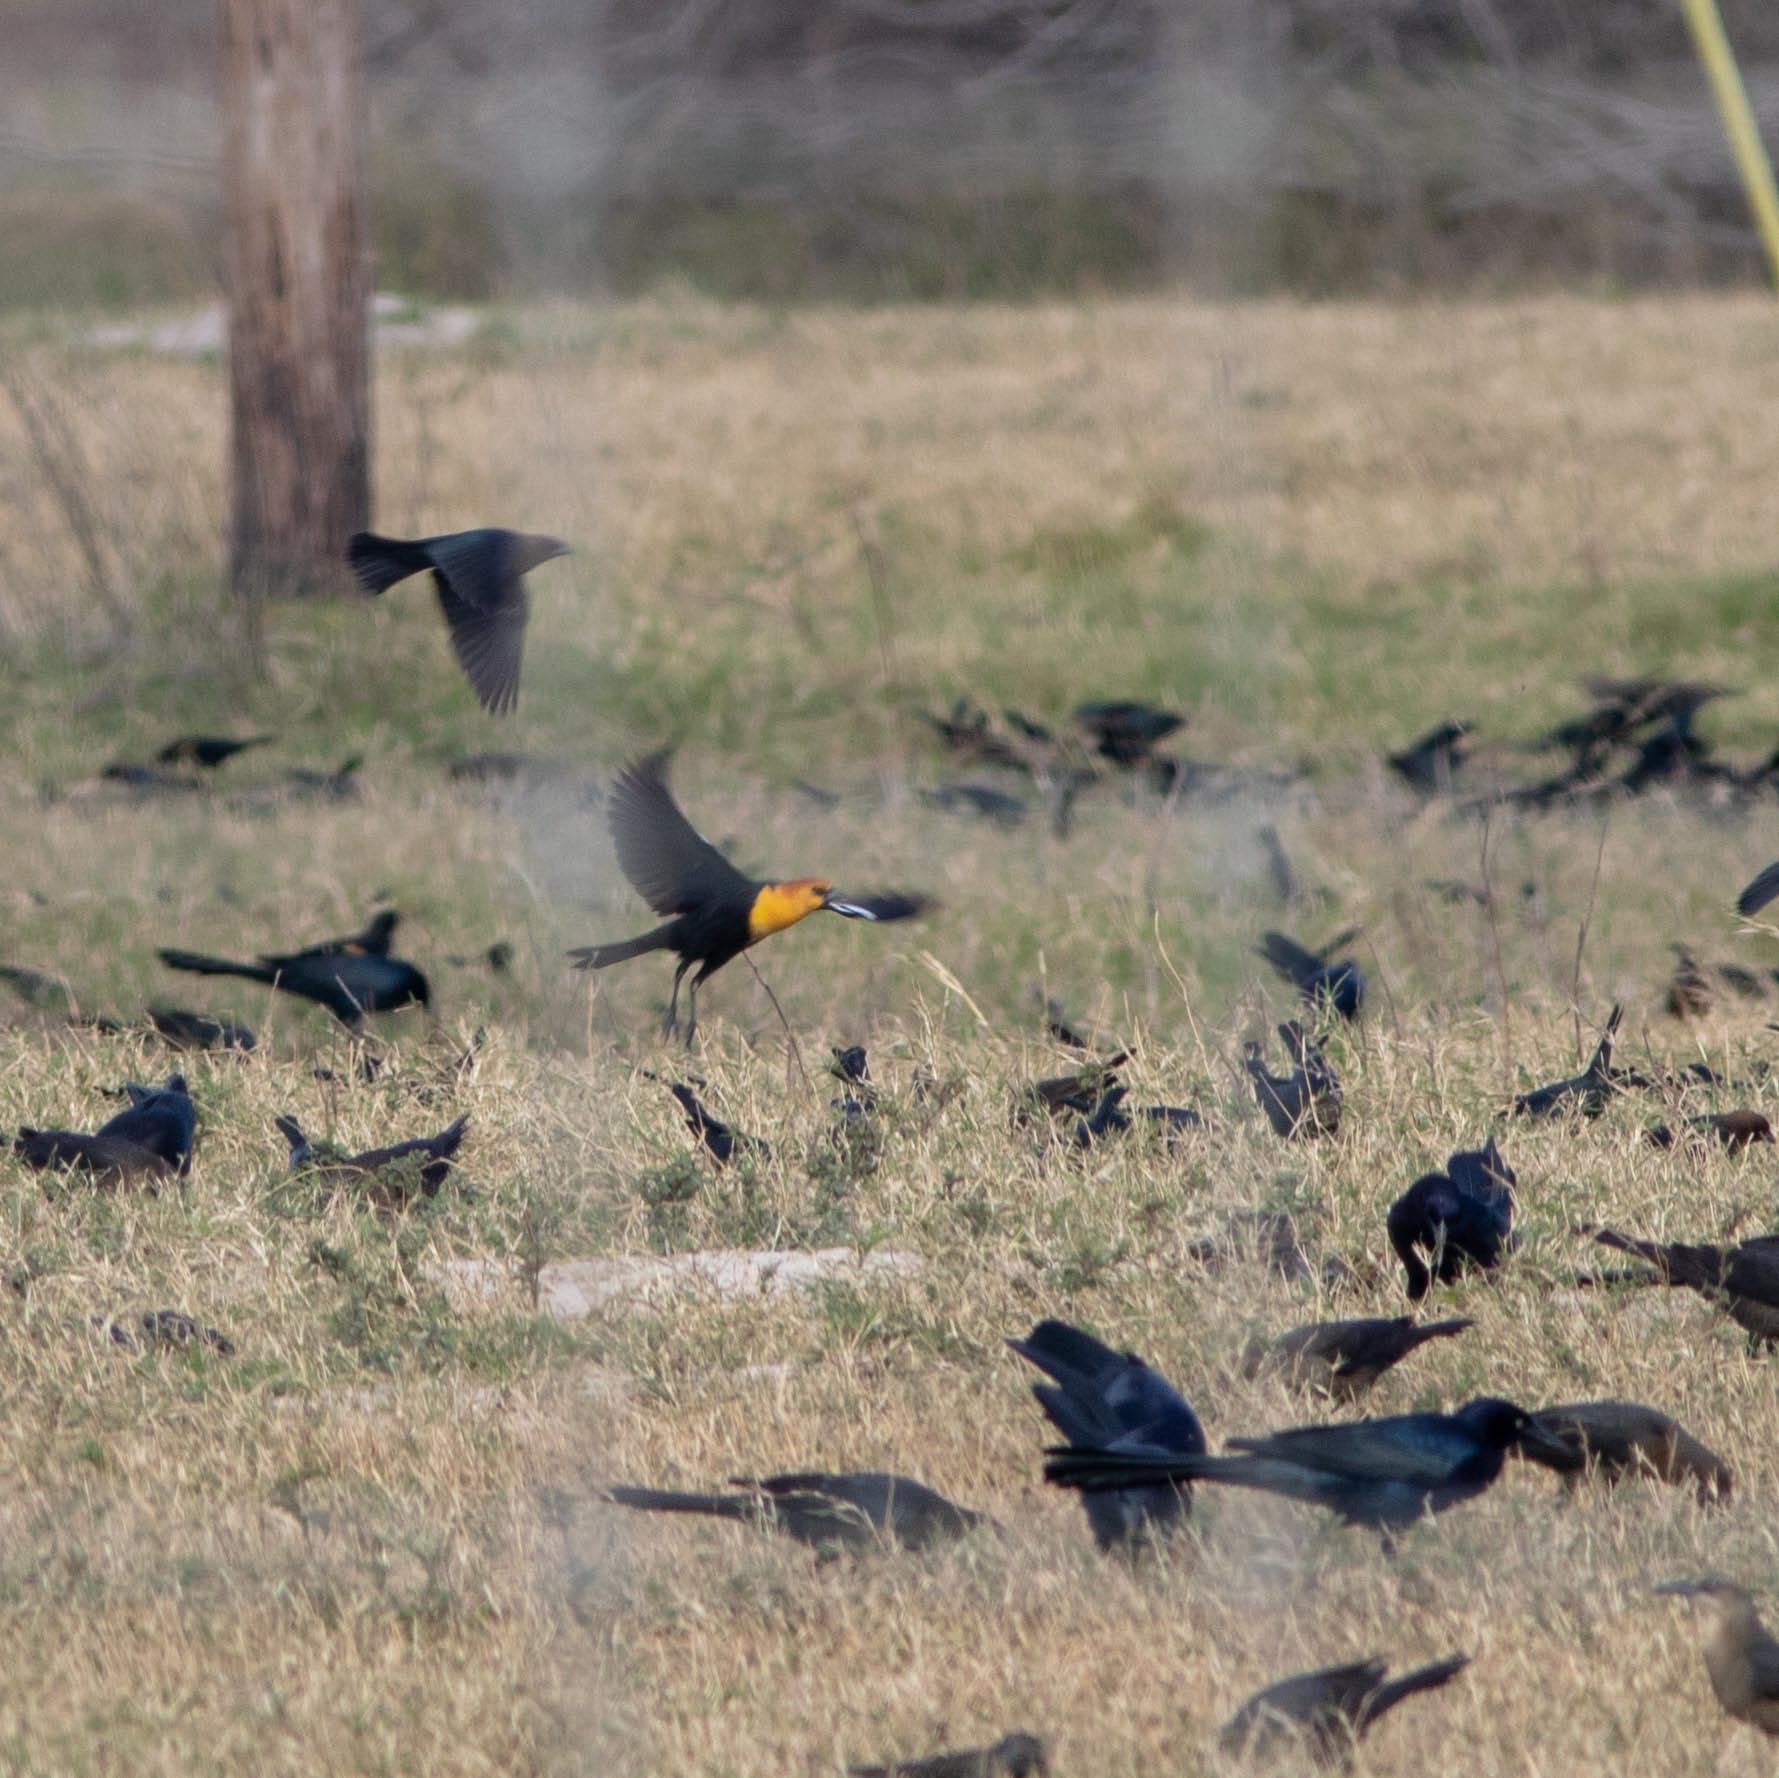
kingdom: Animalia
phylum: Chordata
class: Aves
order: Passeriformes
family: Icteridae
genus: Xanthocephalus
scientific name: Xanthocephalus xanthocephalus
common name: Yellow-headed blackbird
